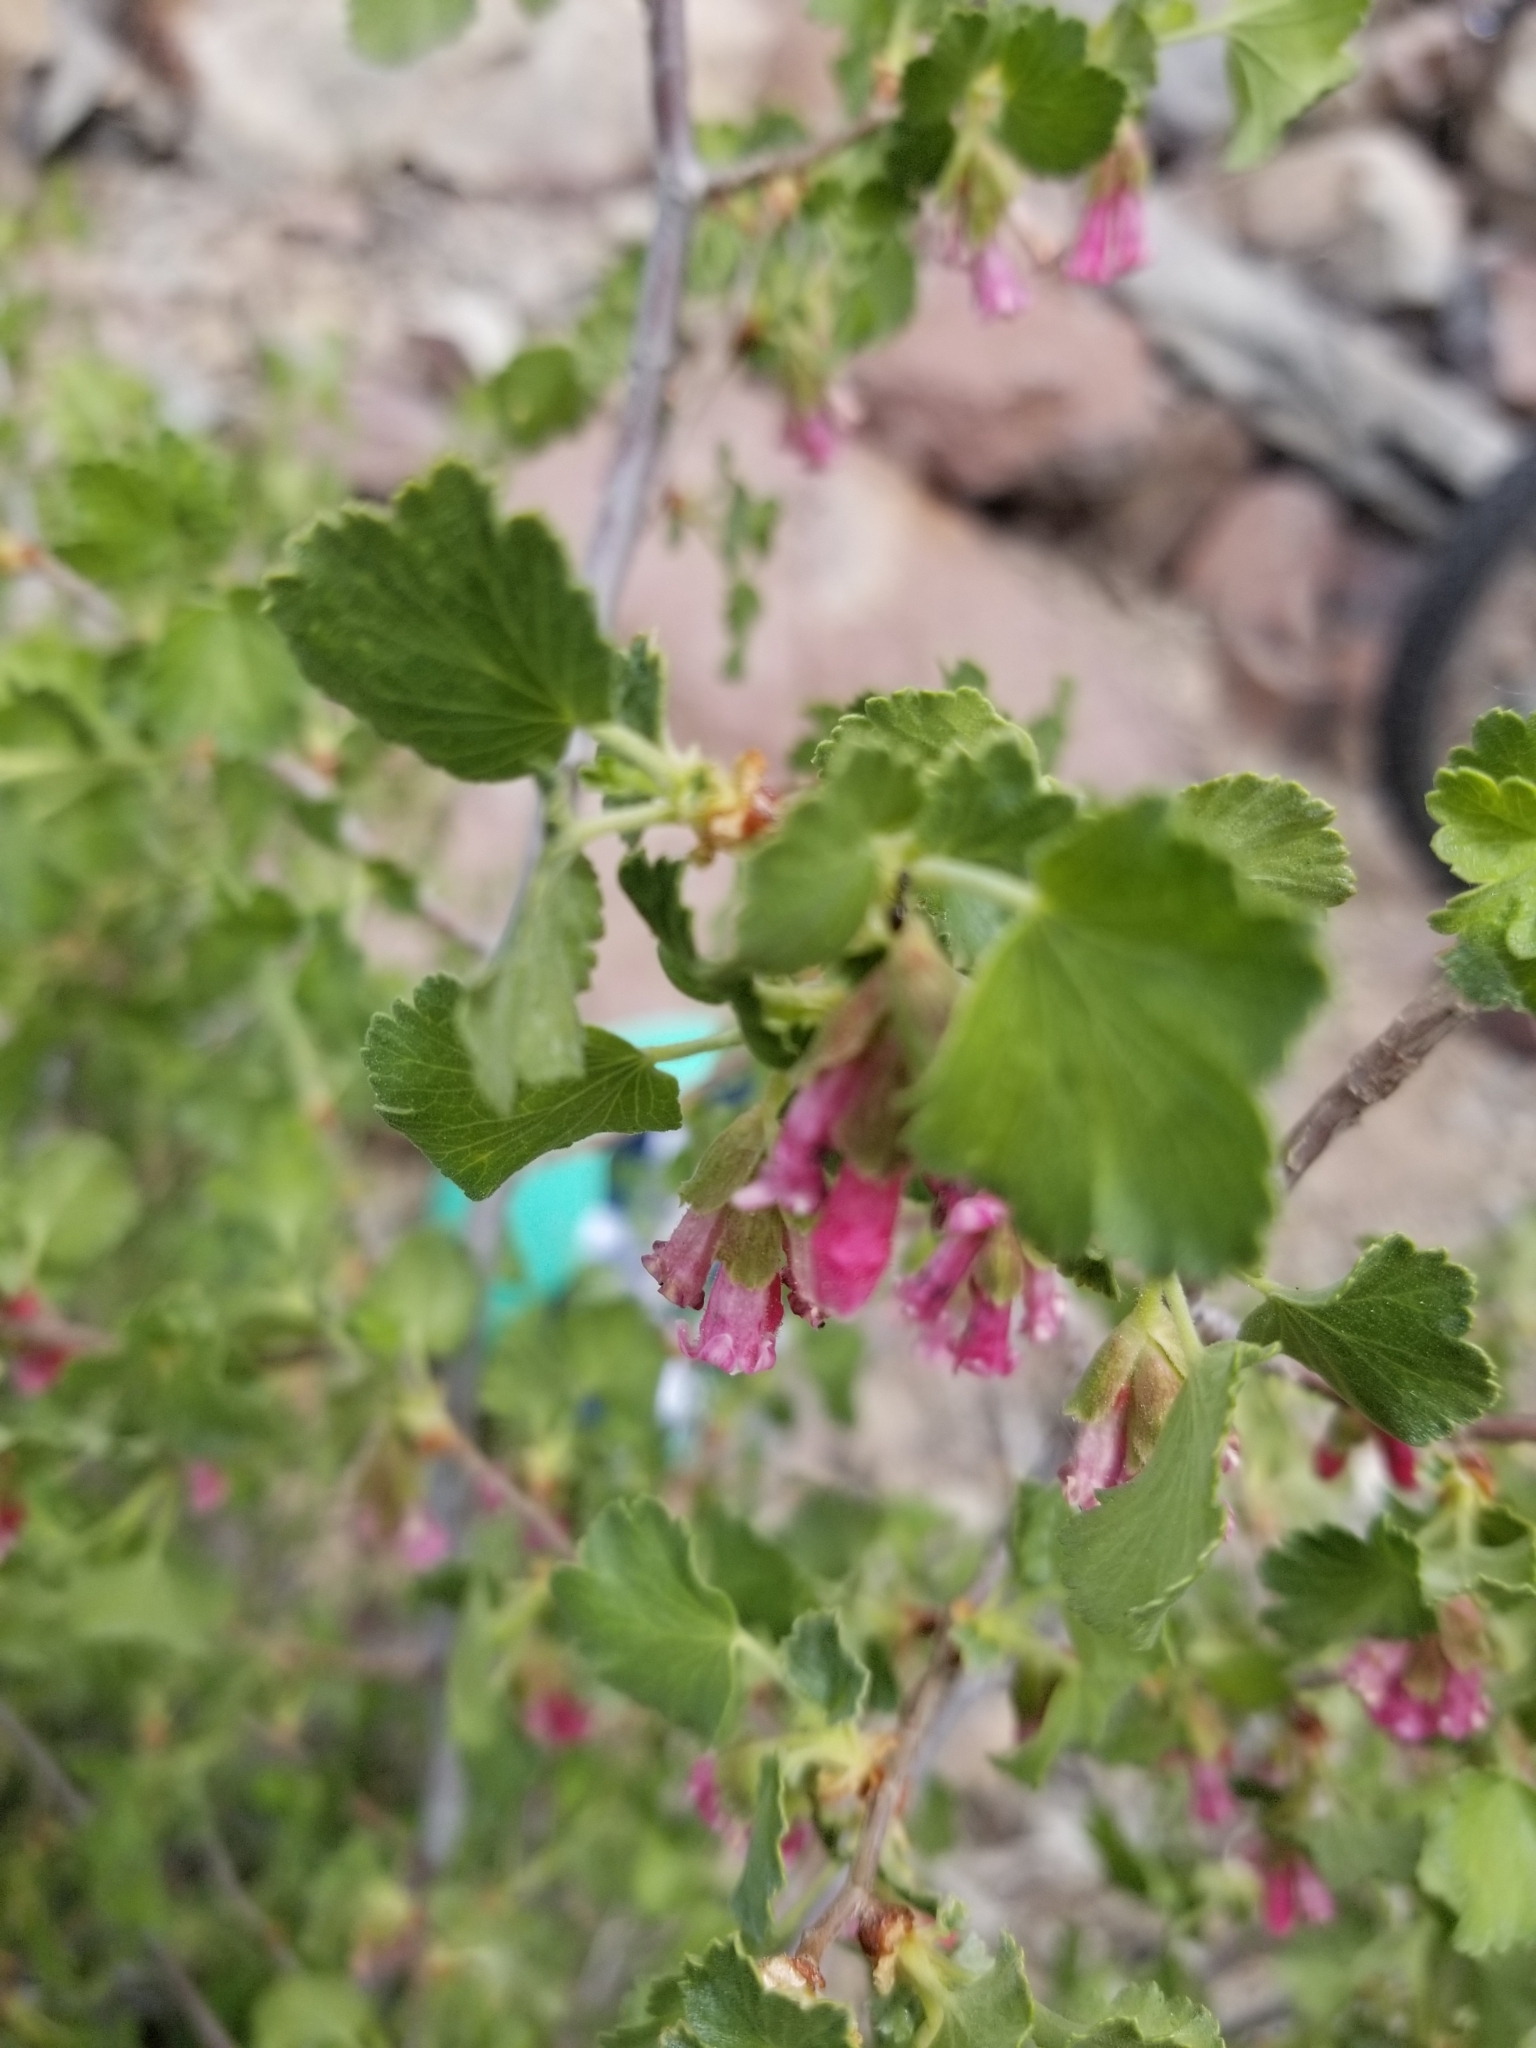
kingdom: Plantae
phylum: Tracheophyta
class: Magnoliopsida
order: Saxifragales
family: Grossulariaceae
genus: Ribes
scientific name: Ribes cereum
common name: Wax currant
